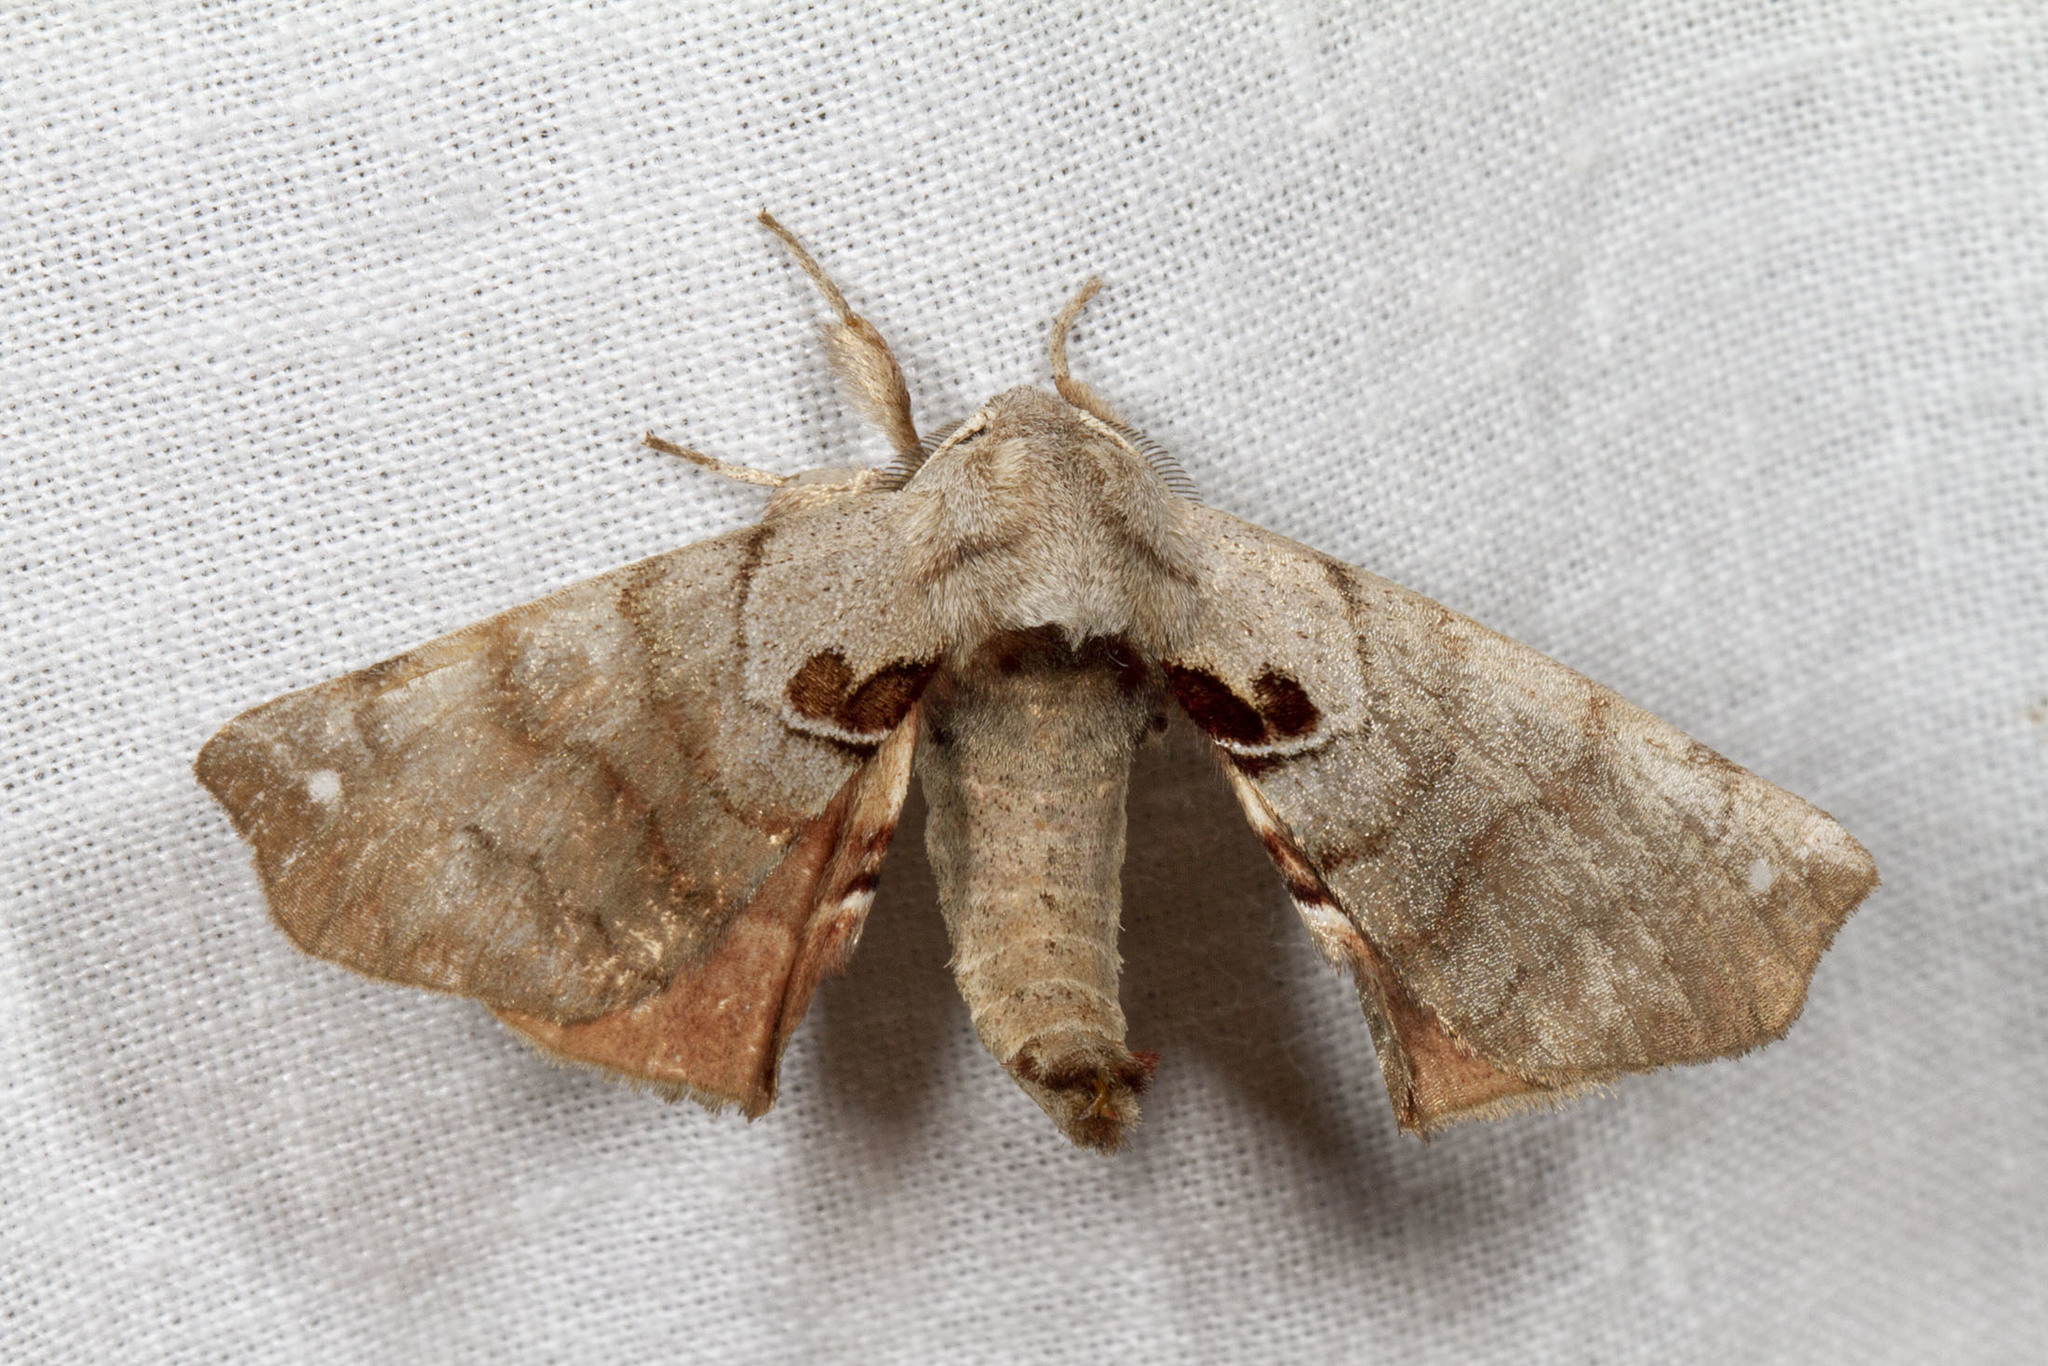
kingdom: Animalia
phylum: Arthropoda
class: Insecta
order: Lepidoptera
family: Apatelodidae
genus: Hygrochroa
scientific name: Hygrochroa Apatelodes torrefacta
